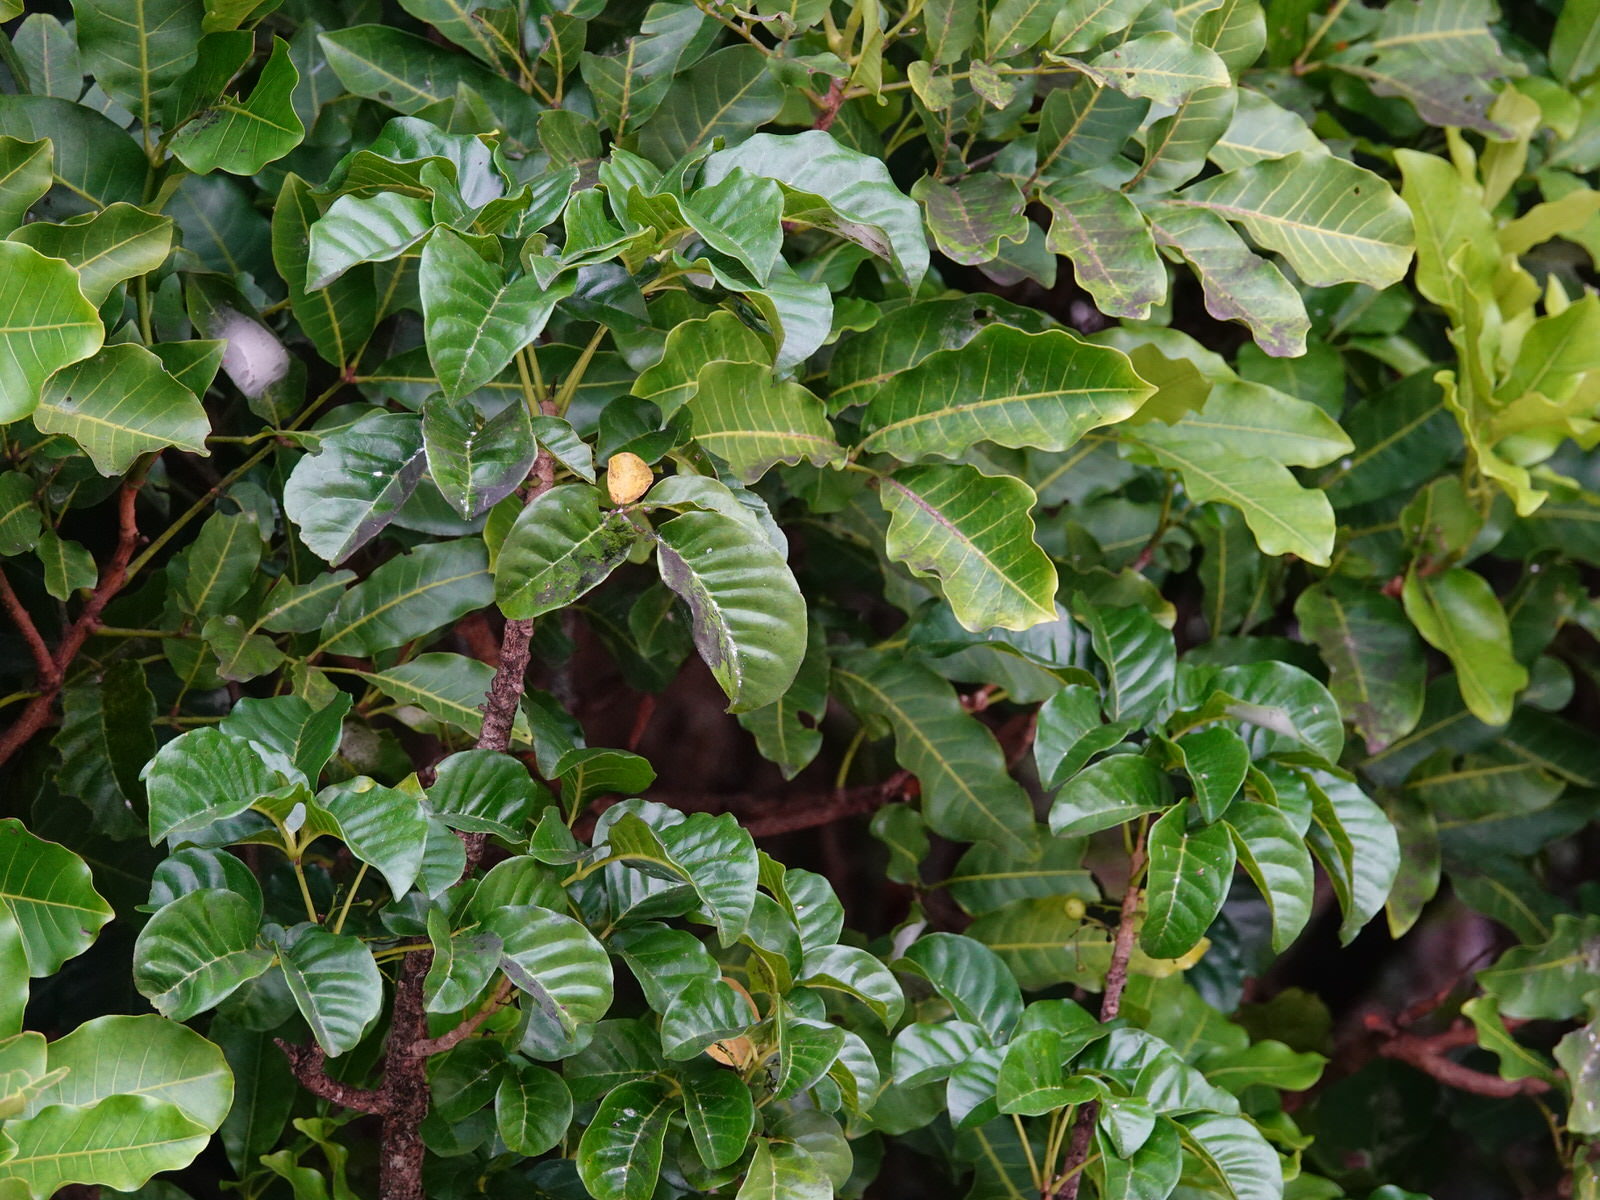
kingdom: Plantae
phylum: Tracheophyta
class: Magnoliopsida
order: Lamiales
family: Lamiaceae
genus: Vitex
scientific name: Vitex lucens
